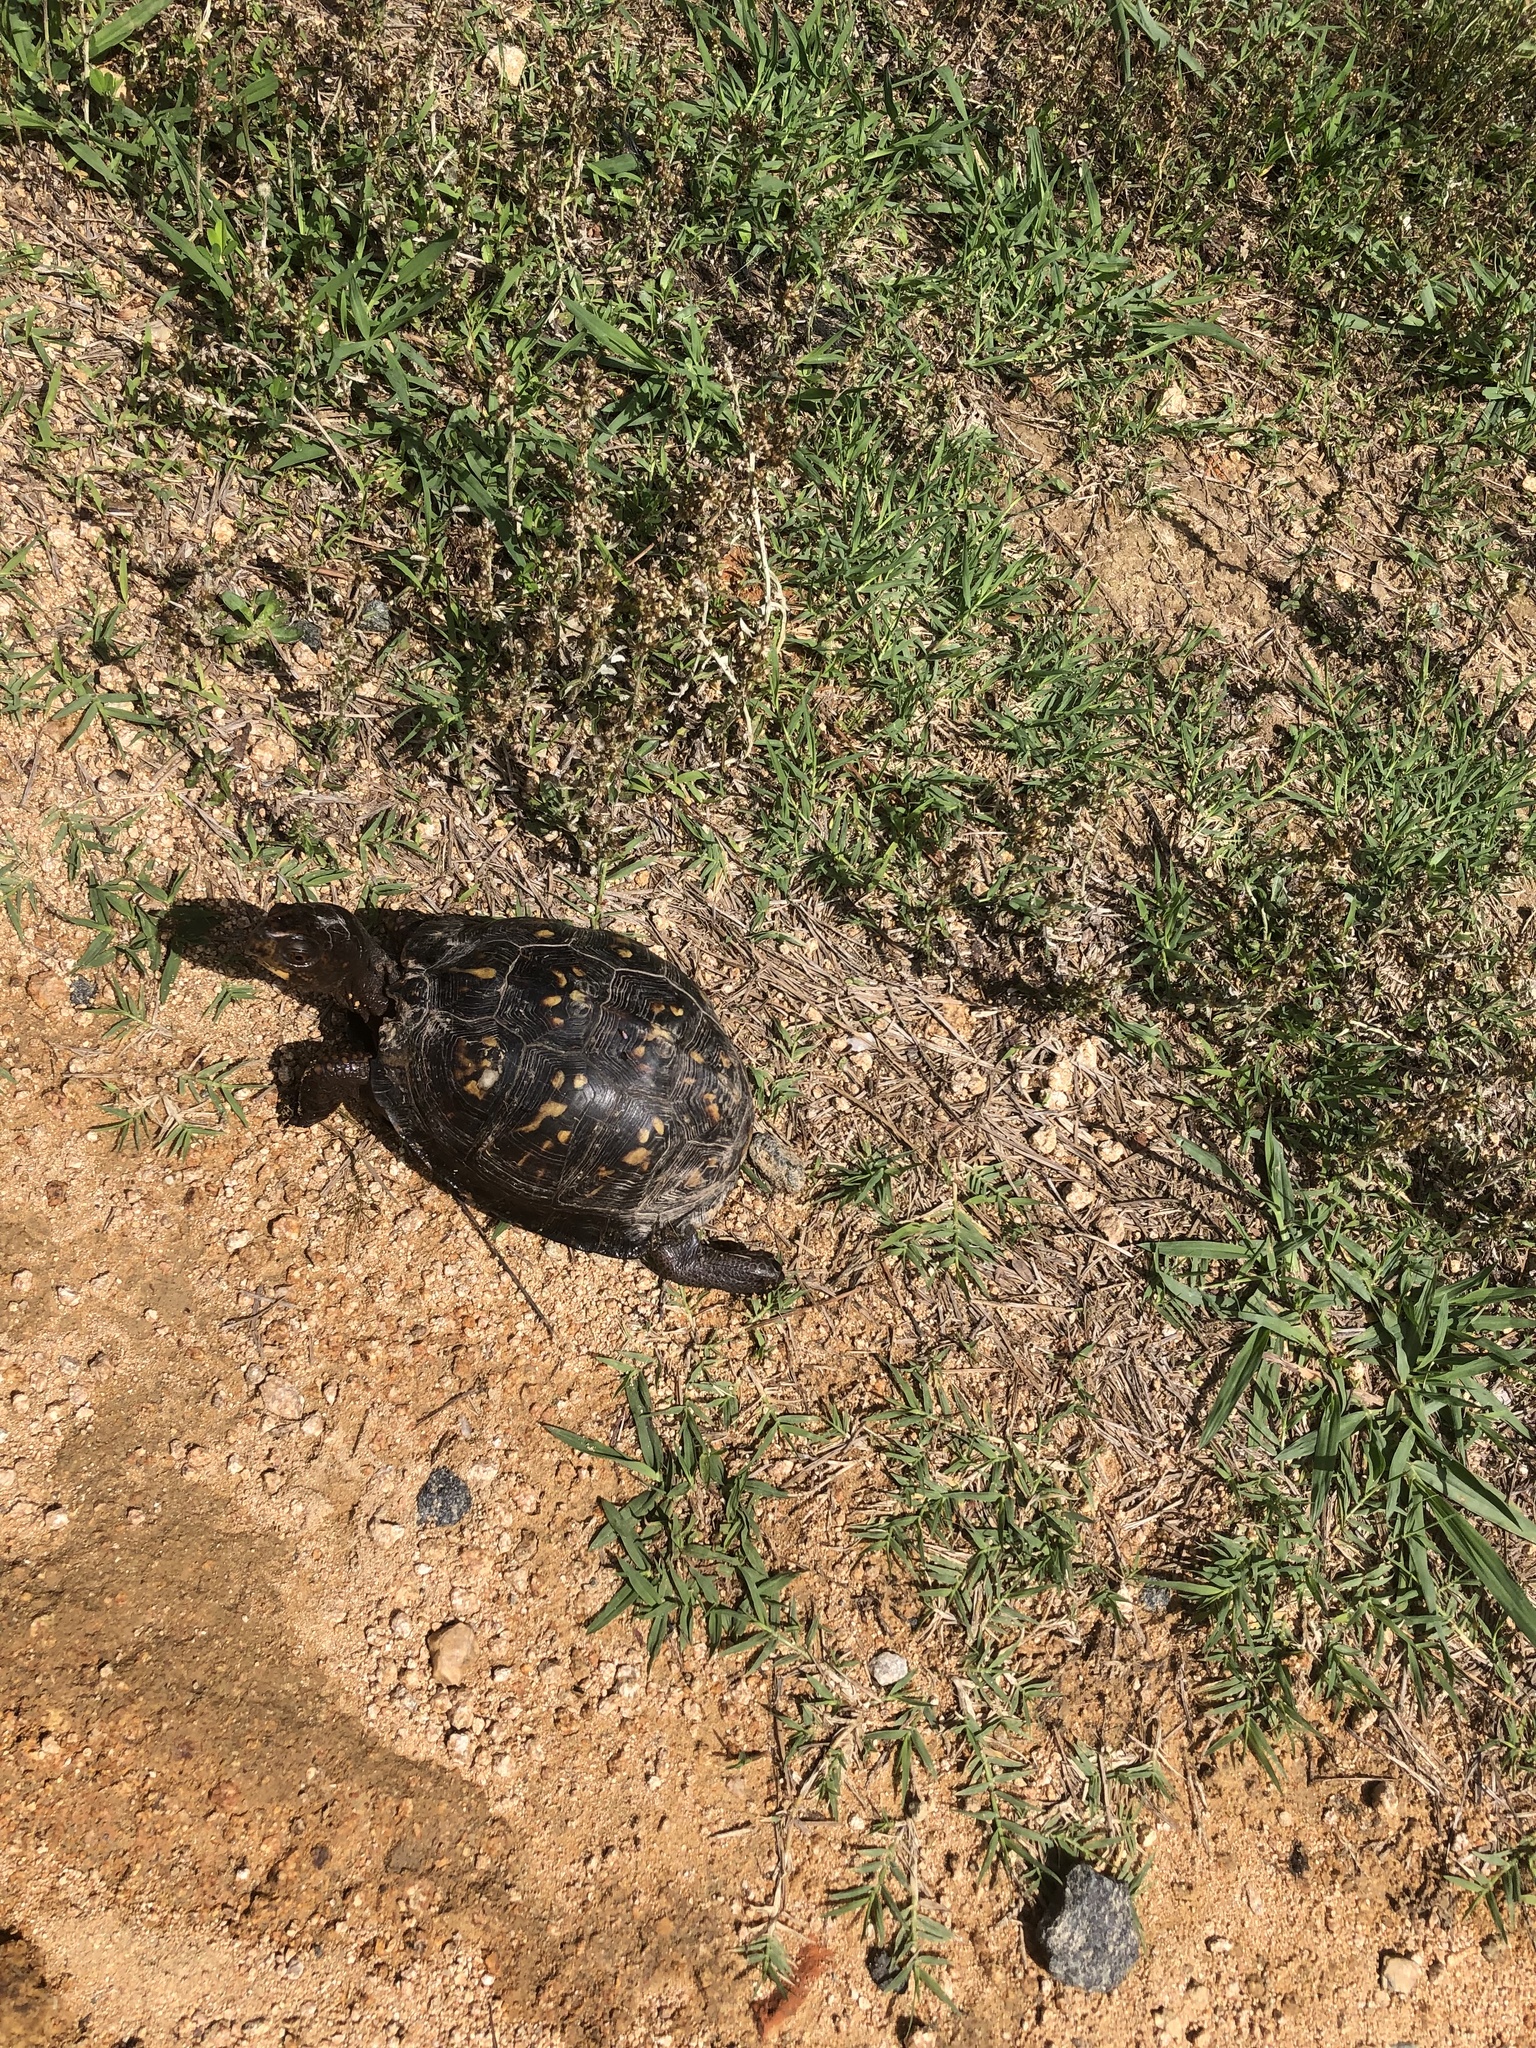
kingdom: Animalia
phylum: Chordata
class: Testudines
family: Emydidae
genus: Terrapene
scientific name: Terrapene carolina
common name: Common box turtle
